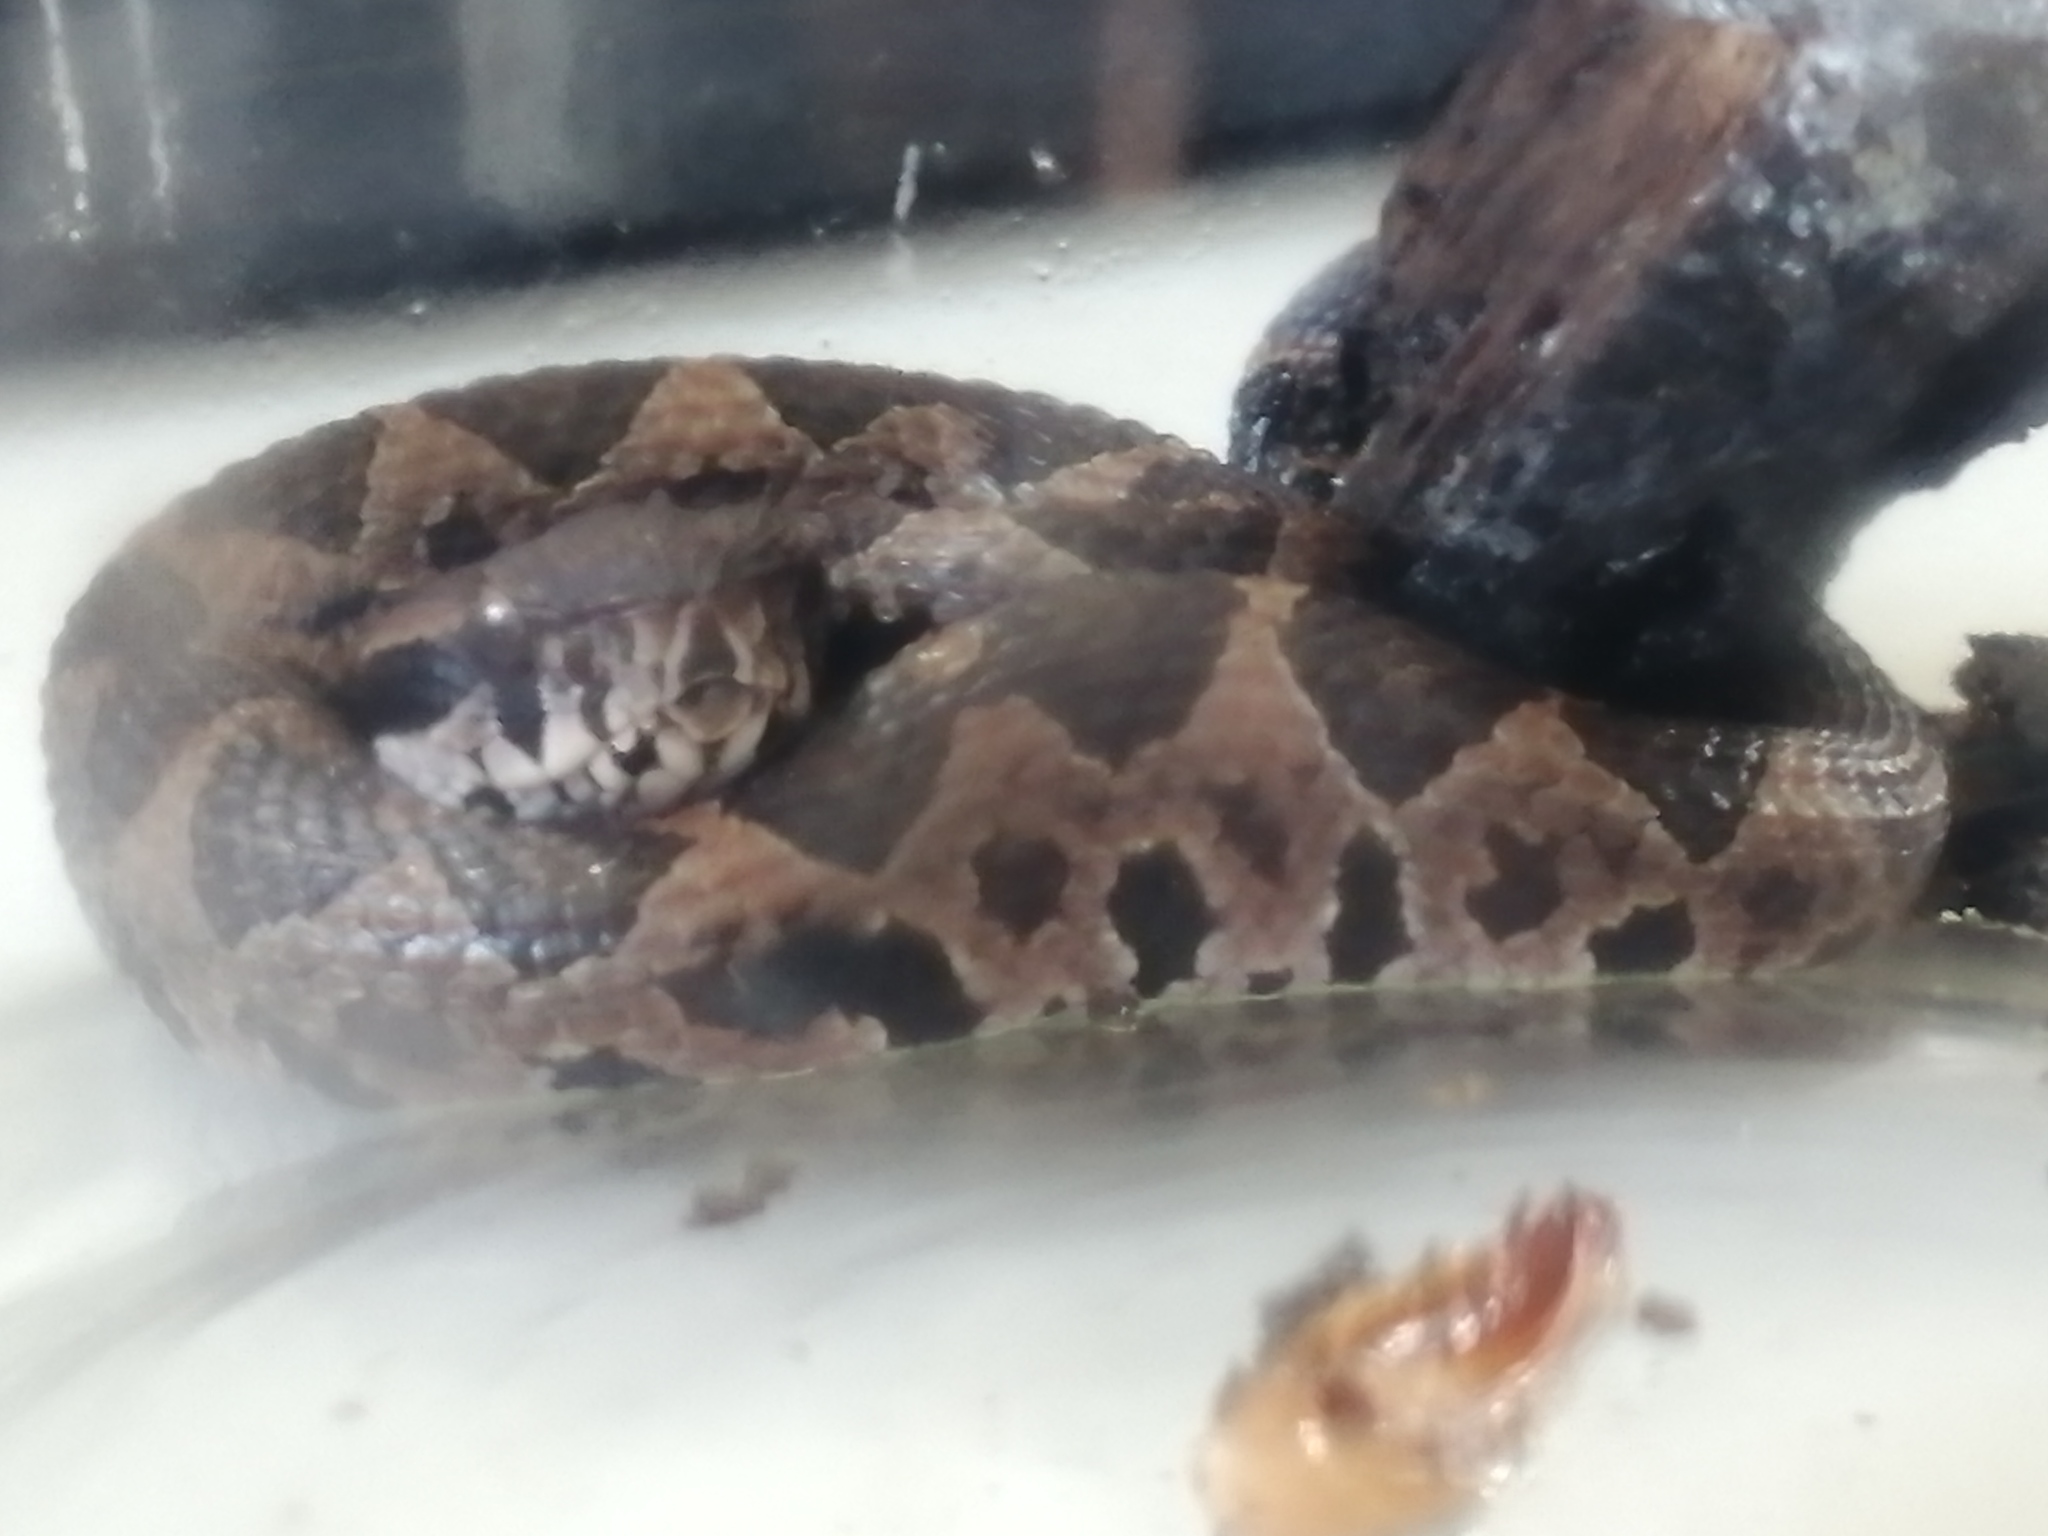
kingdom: Animalia
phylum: Chordata
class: Squamata
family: Viperidae
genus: Metlapilcoatlus
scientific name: Metlapilcoatlus occiduus
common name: Western jumping pitviper
